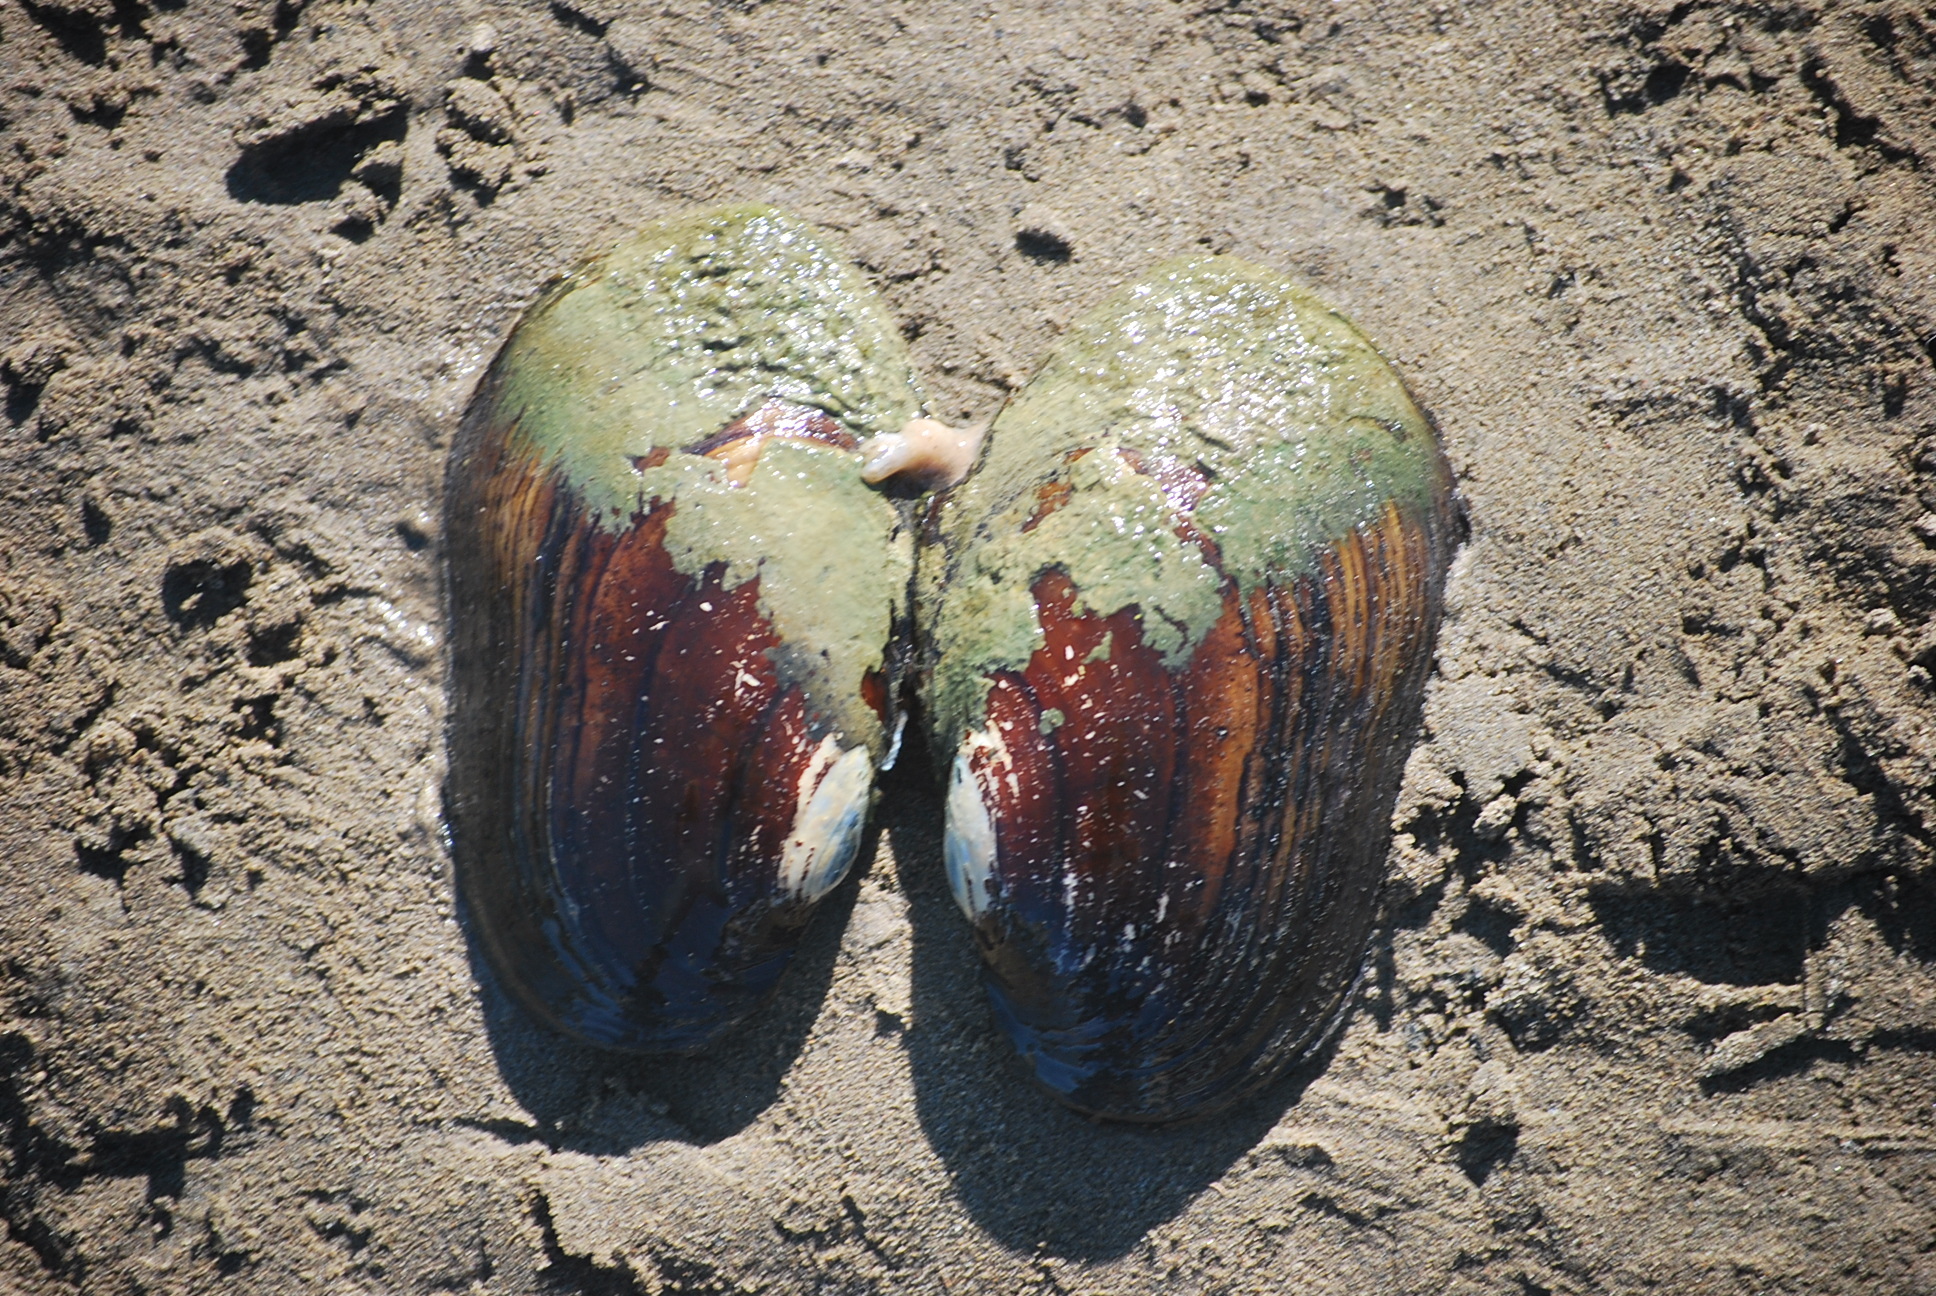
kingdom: Animalia
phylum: Mollusca
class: Bivalvia
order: Unionida
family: Unionidae
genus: Lampsilis
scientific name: Lampsilis siliquoidea
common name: Fatmucket
